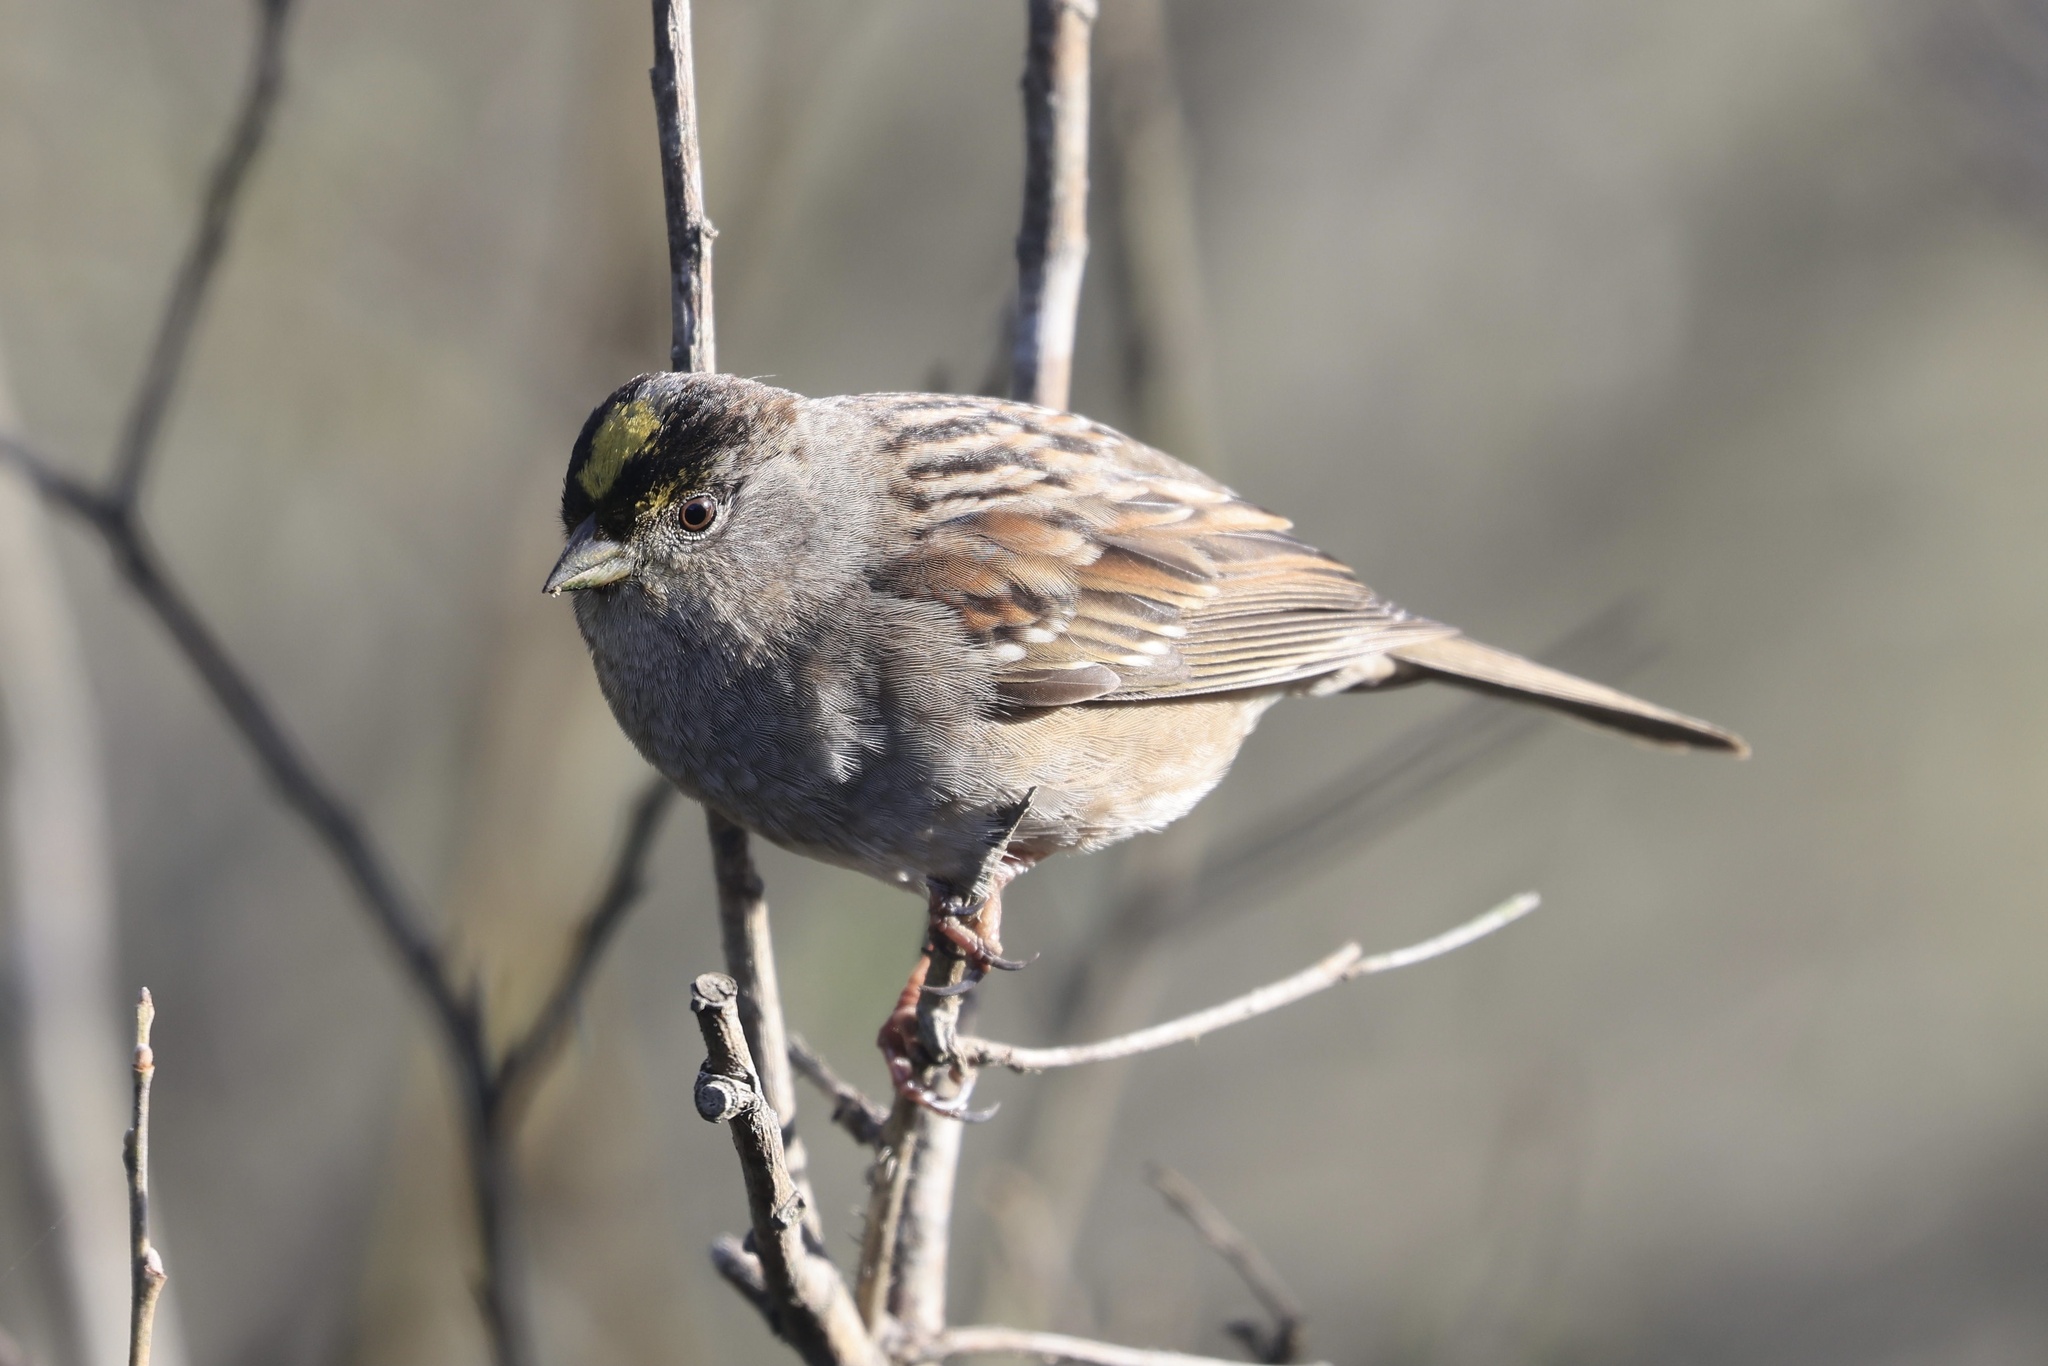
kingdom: Animalia
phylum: Chordata
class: Aves
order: Passeriformes
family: Passerellidae
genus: Zonotrichia
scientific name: Zonotrichia atricapilla
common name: Golden-crowned sparrow
